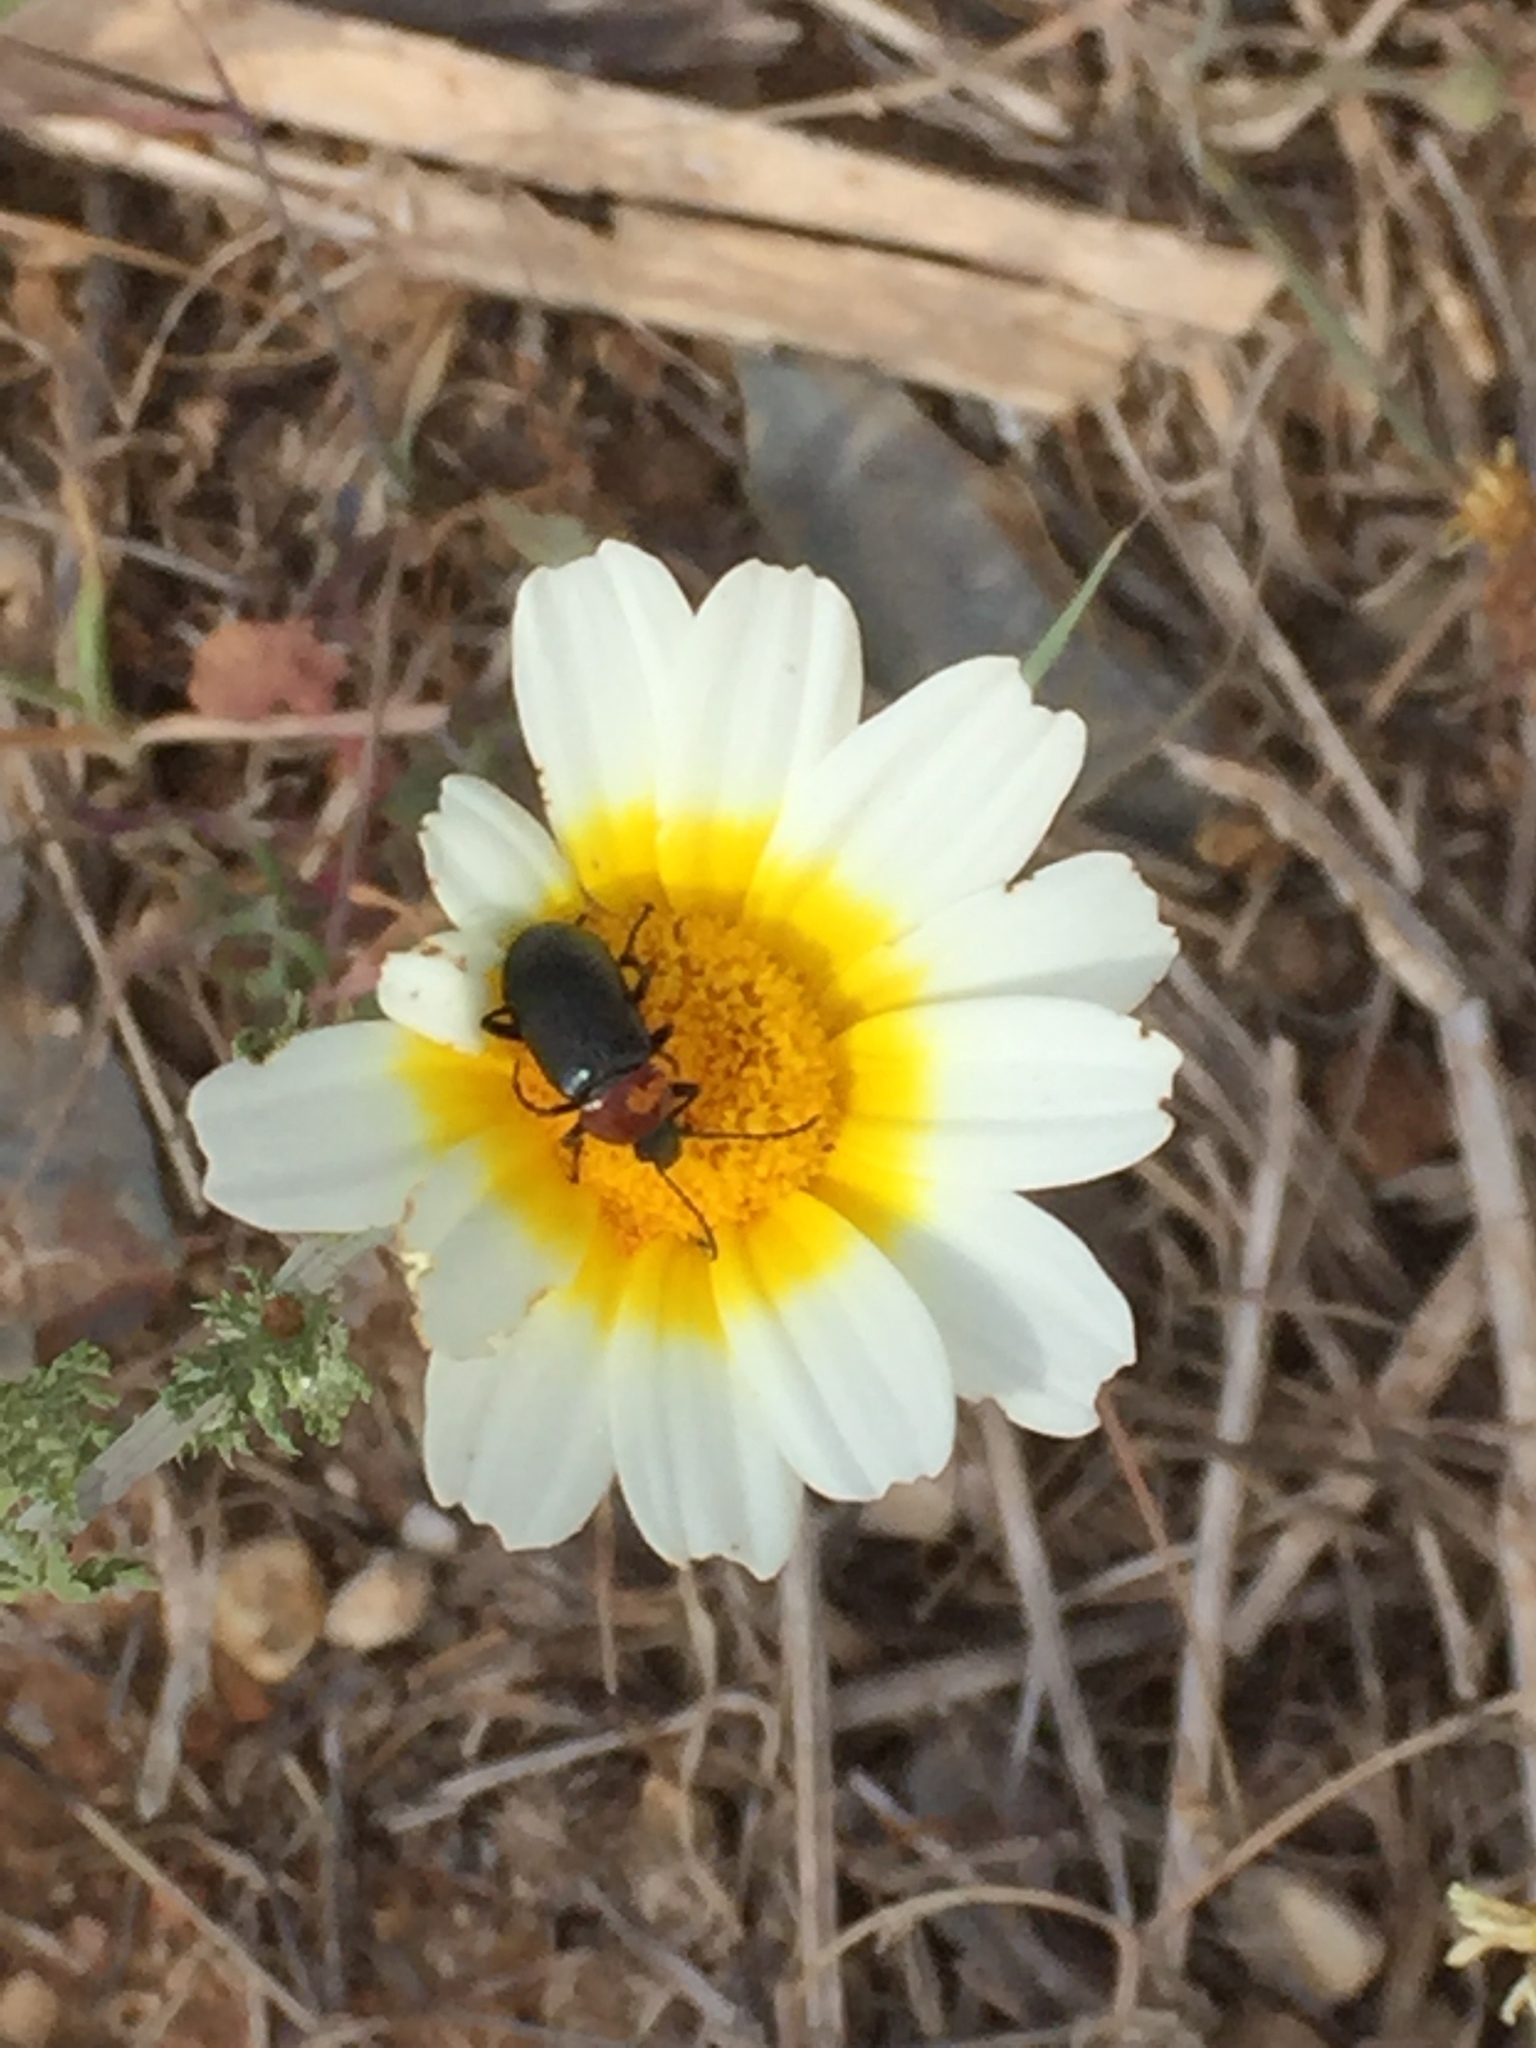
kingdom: Plantae
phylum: Tracheophyta
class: Magnoliopsida
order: Asterales
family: Asteraceae
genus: Glebionis
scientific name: Glebionis coronaria
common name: Crowndaisy
